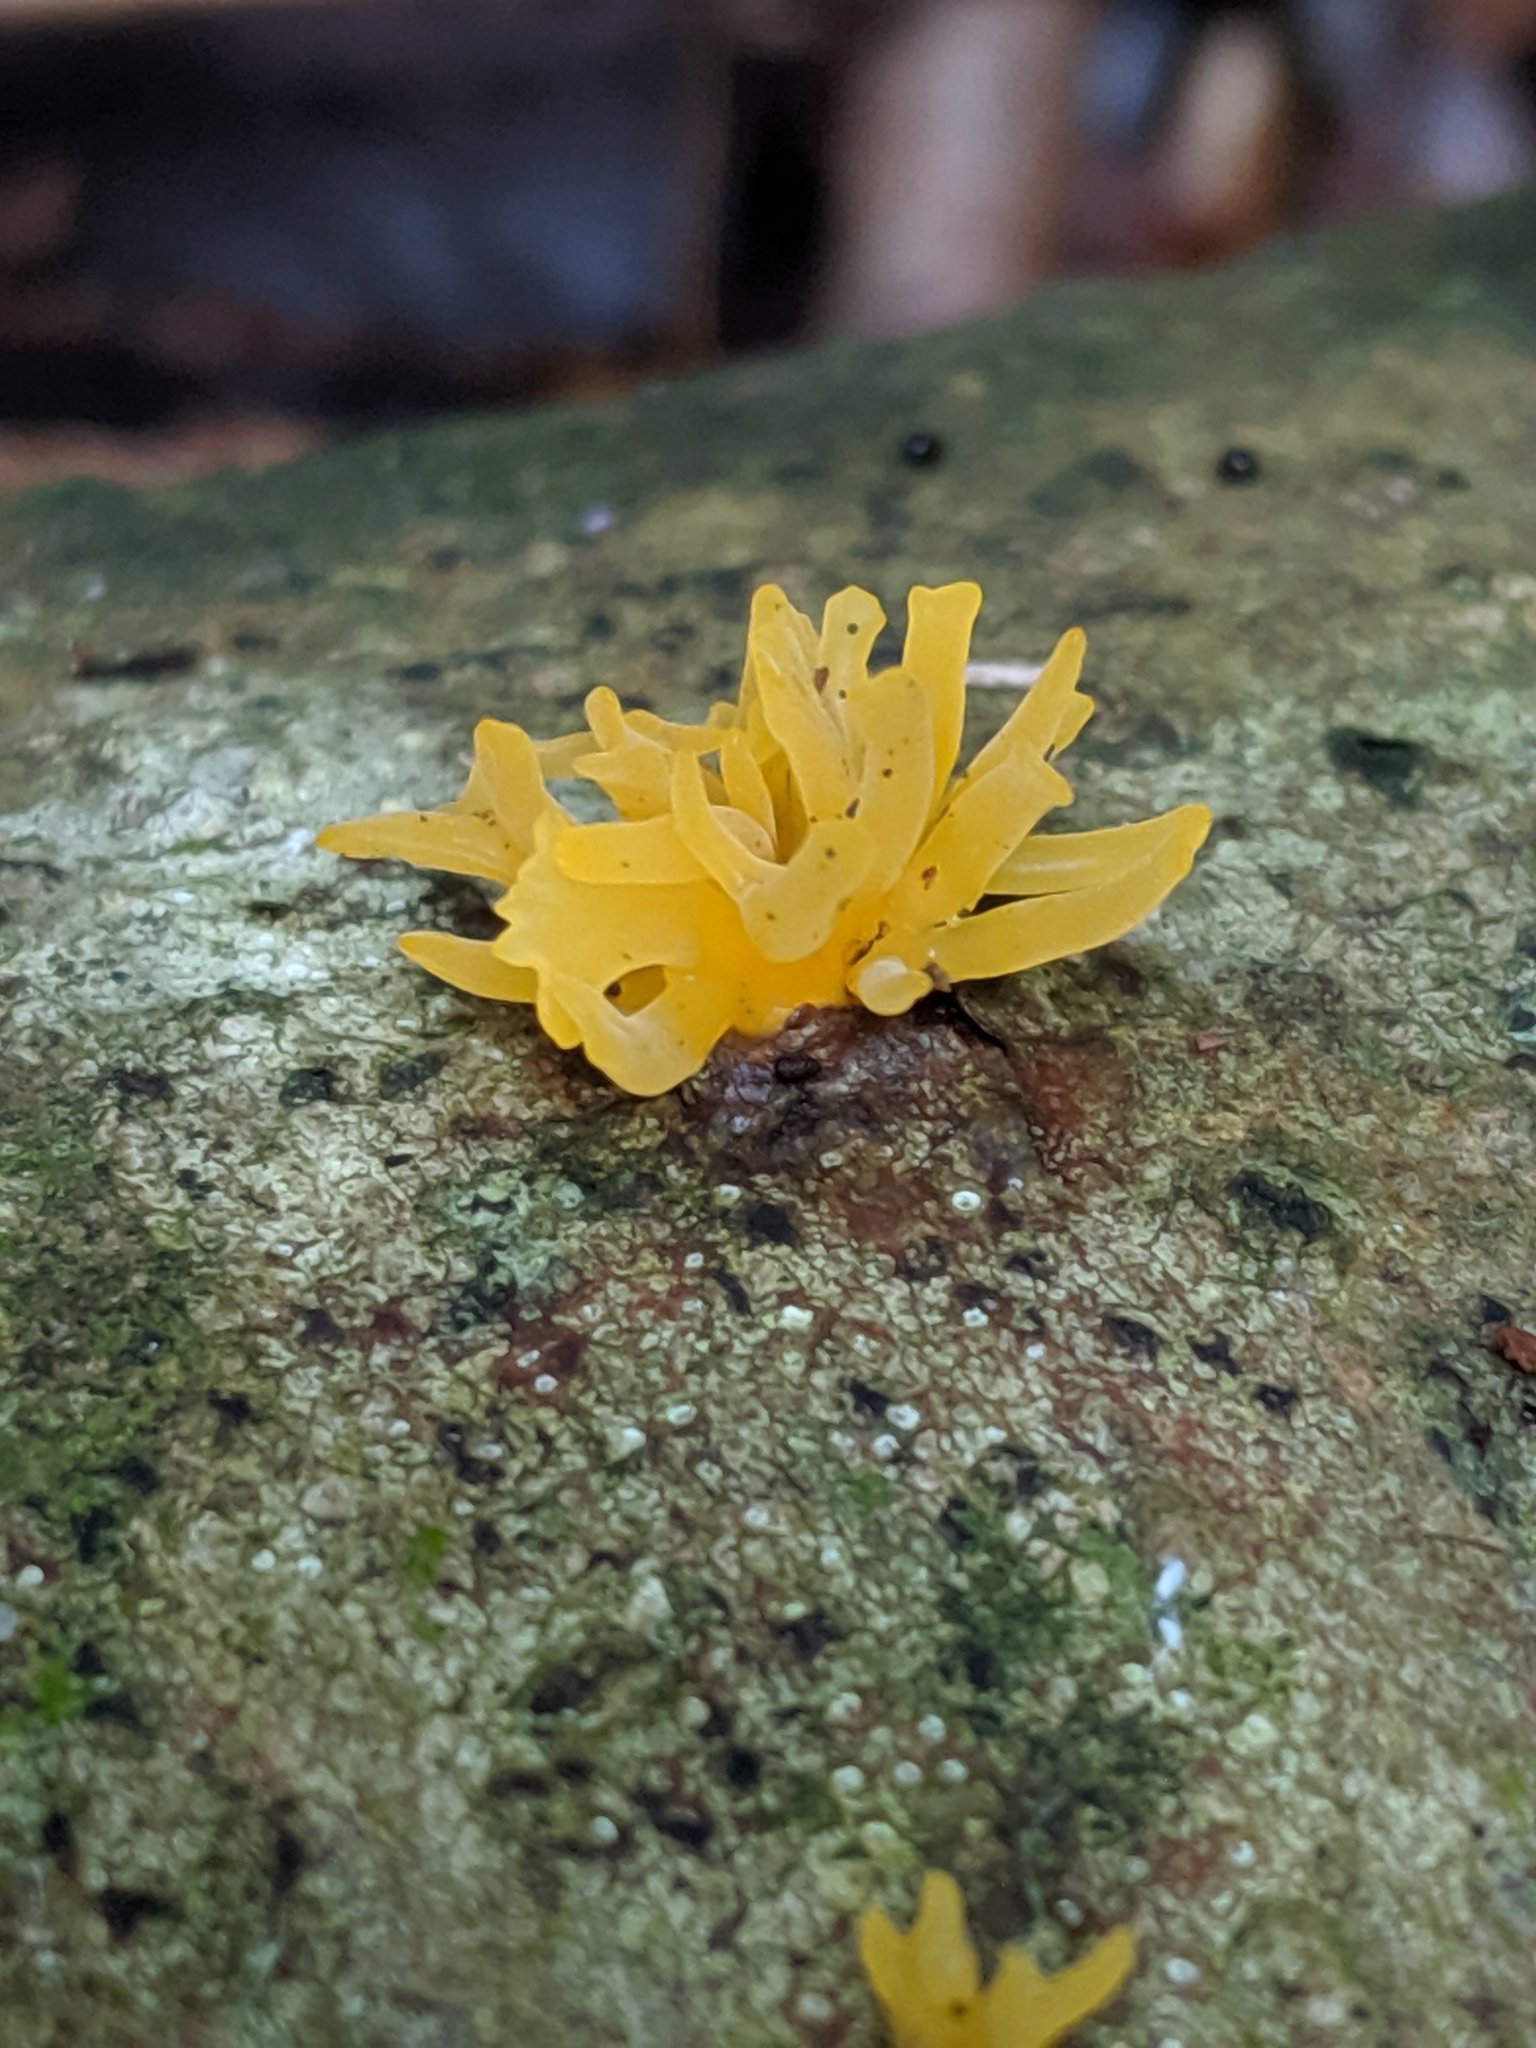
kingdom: Fungi
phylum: Basidiomycota
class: Dacrymycetes
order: Dacrymycetales
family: Dacrymycetaceae
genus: Calocera
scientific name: Calocera cornea
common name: Small stagshorn
